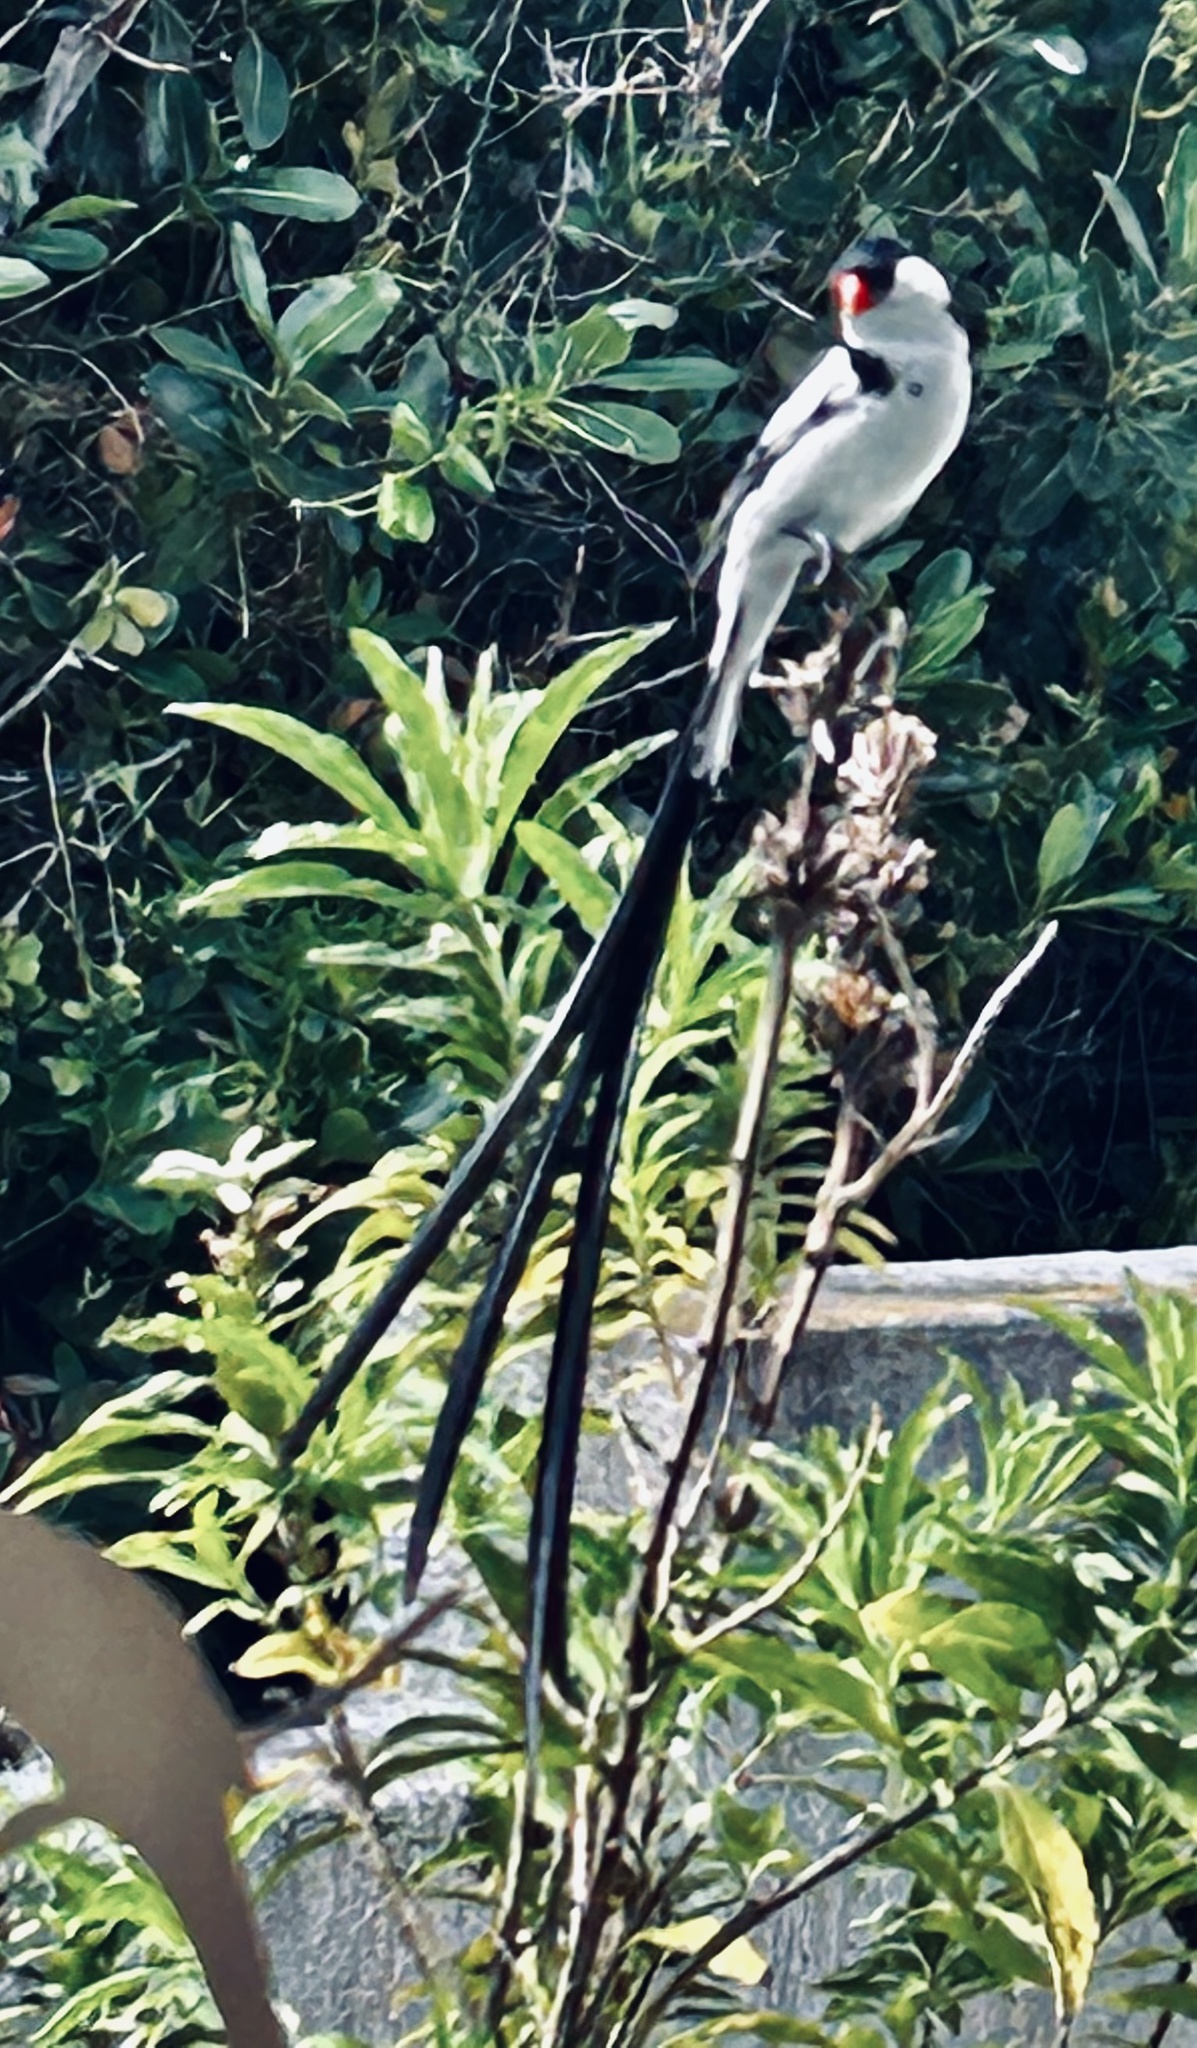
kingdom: Animalia
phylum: Chordata
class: Aves
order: Passeriformes
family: Viduidae
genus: Vidua
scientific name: Vidua macroura
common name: Pin-tailed whydah
